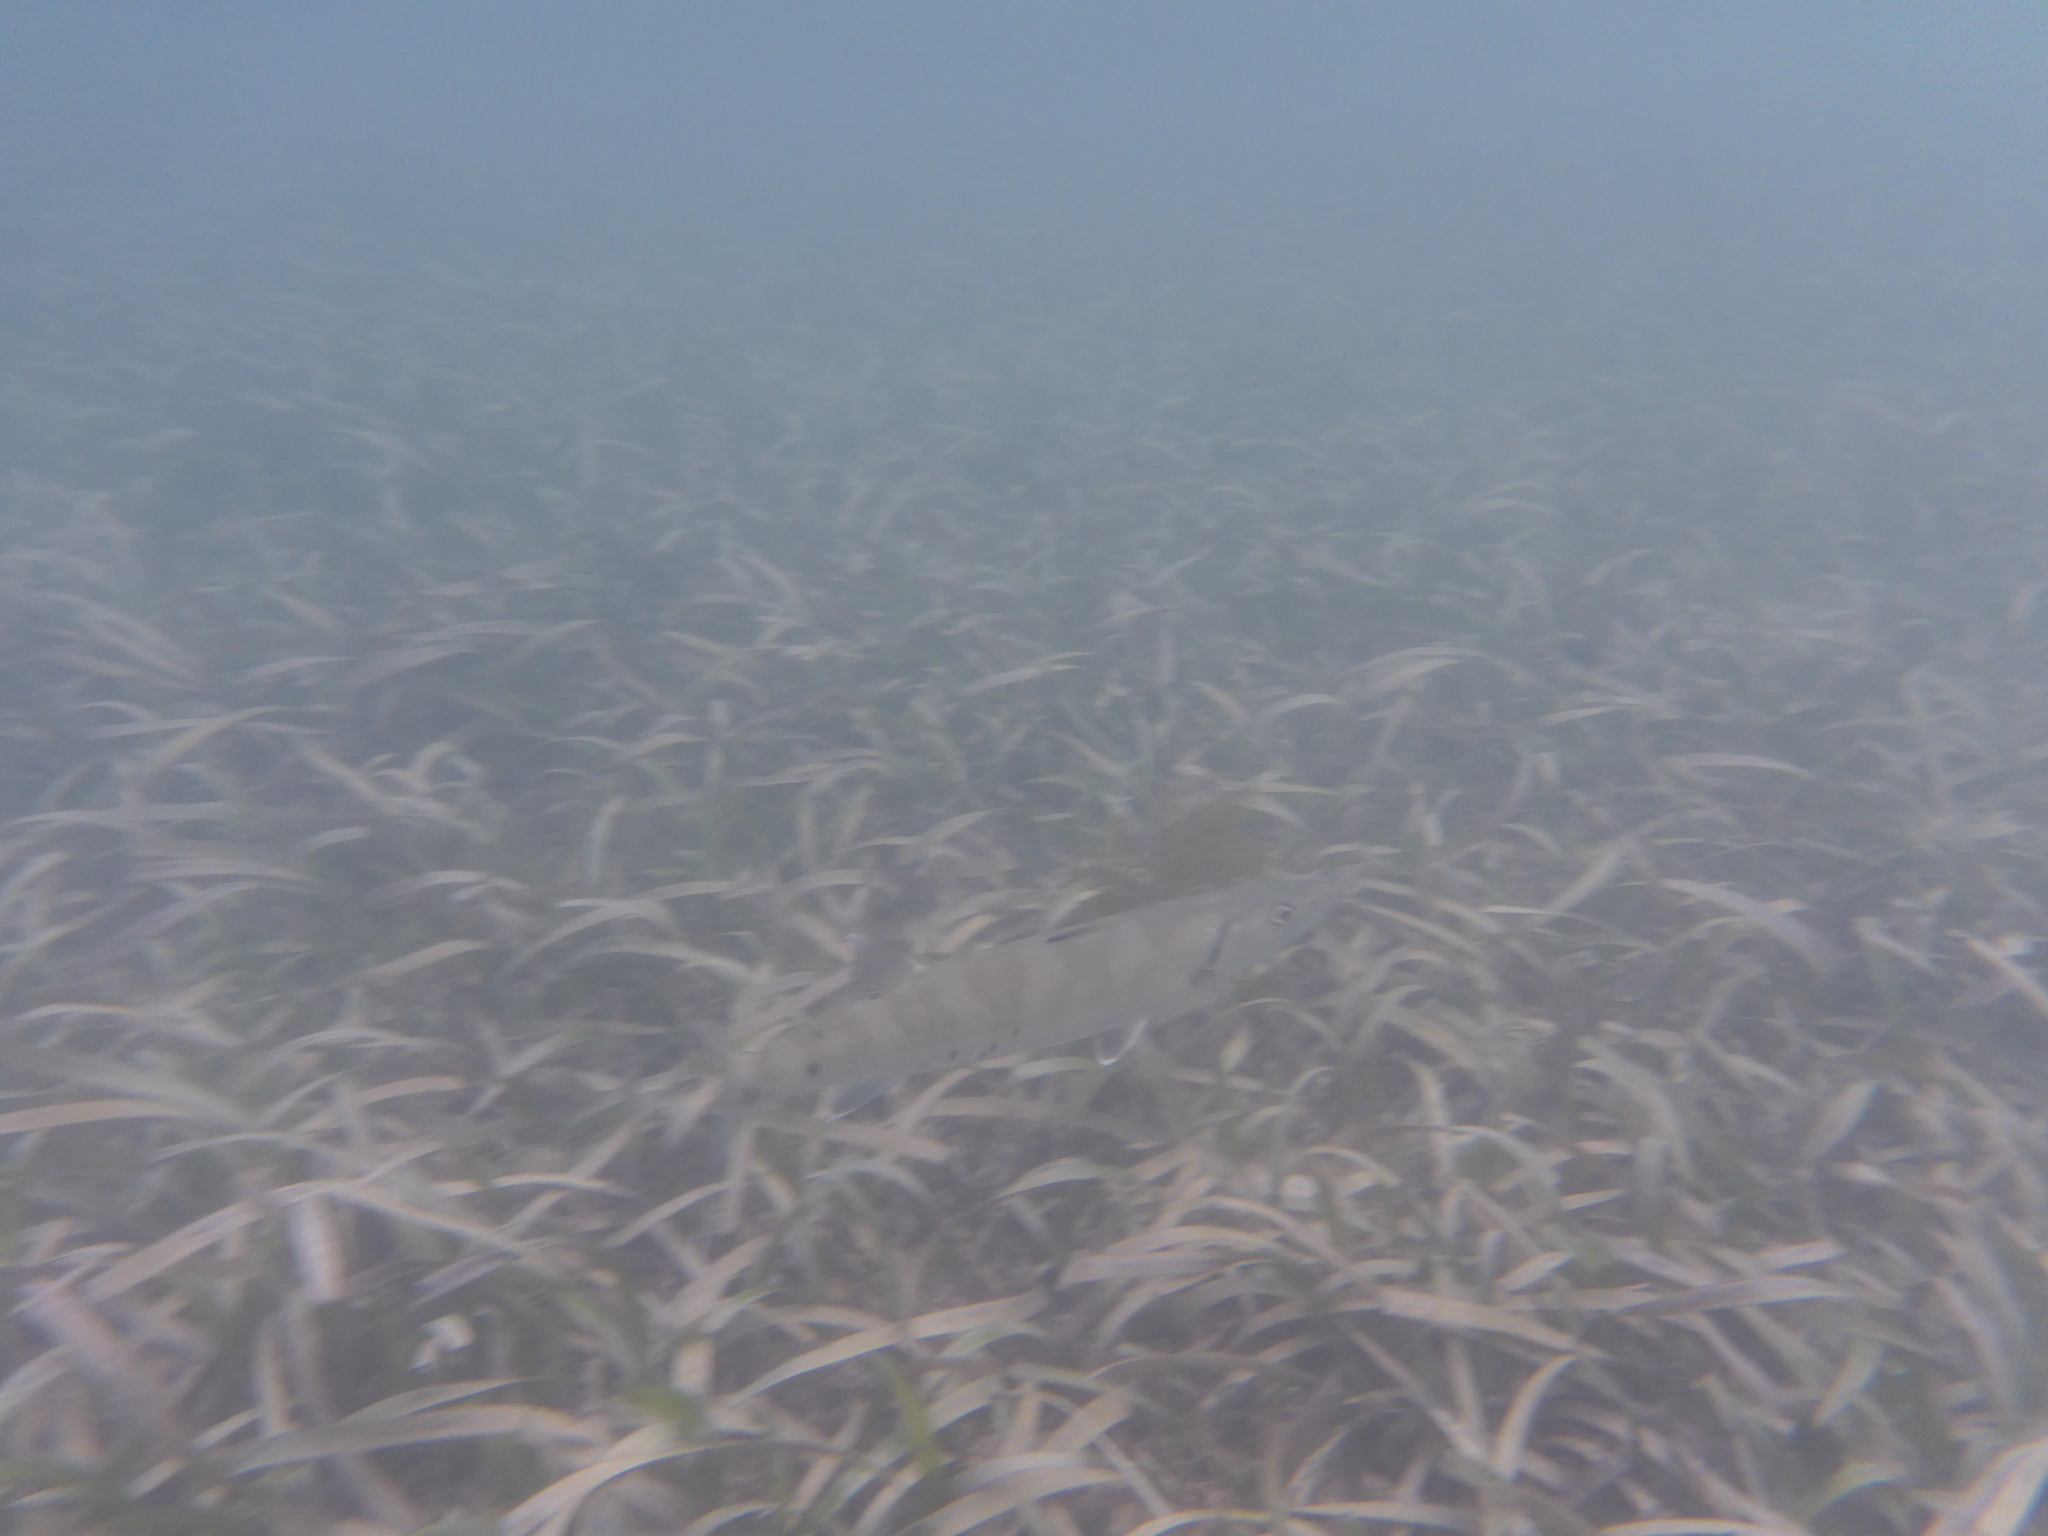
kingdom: Animalia
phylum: Chordata
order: Perciformes
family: Sphyraenidae
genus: Sphyraena
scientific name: Sphyraena barracuda
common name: Great barracuda
